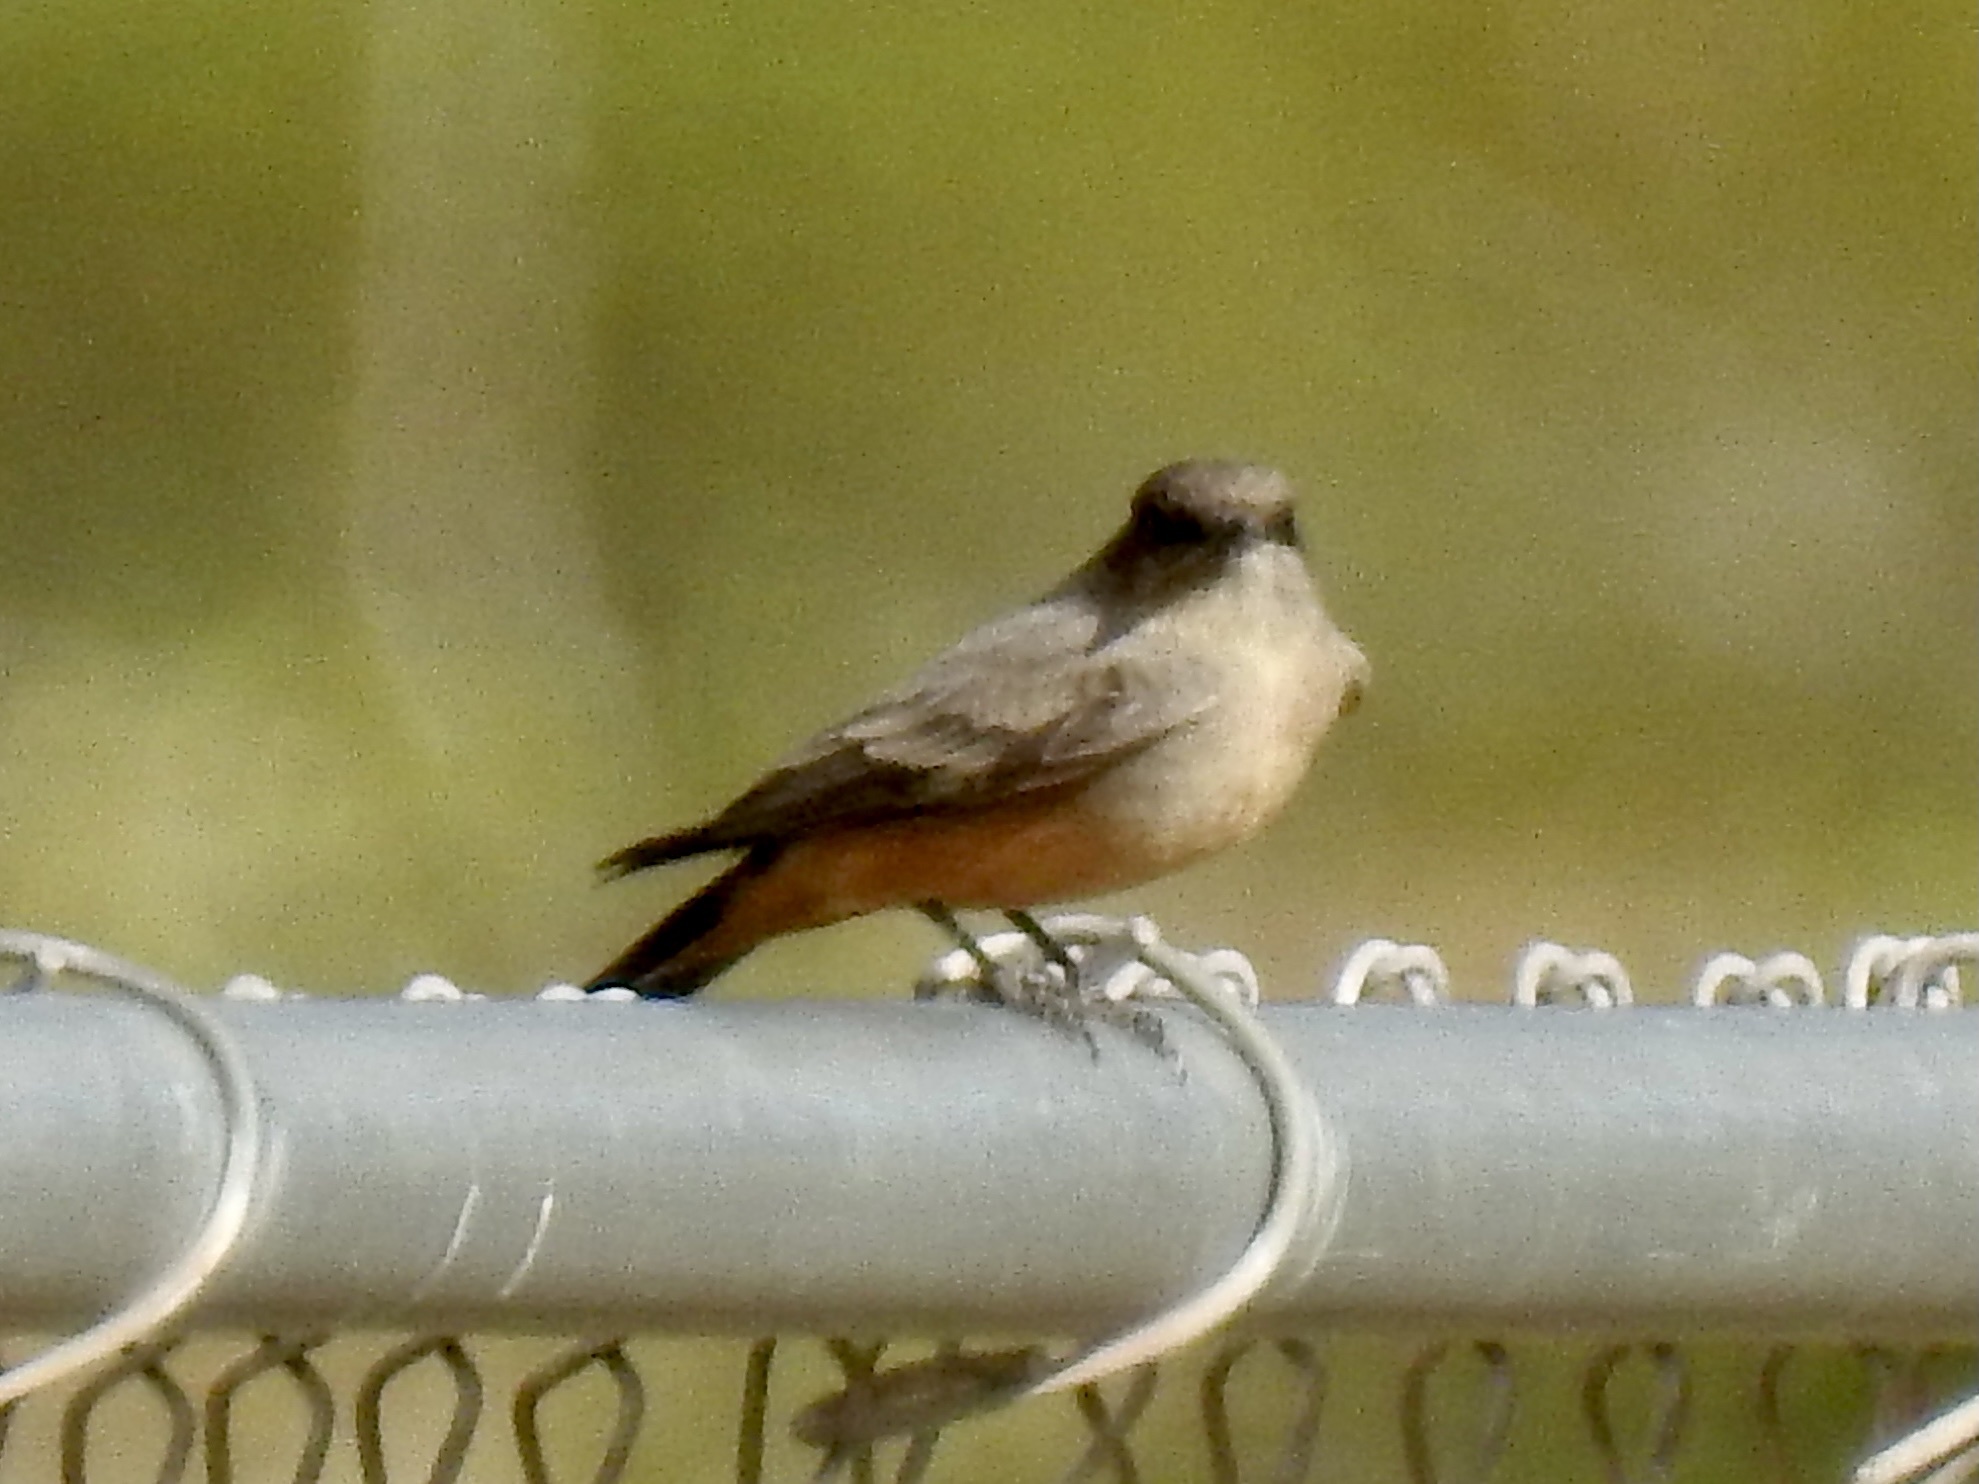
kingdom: Animalia
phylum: Chordata
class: Aves
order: Passeriformes
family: Tyrannidae
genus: Sayornis
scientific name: Sayornis saya
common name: Say's phoebe
